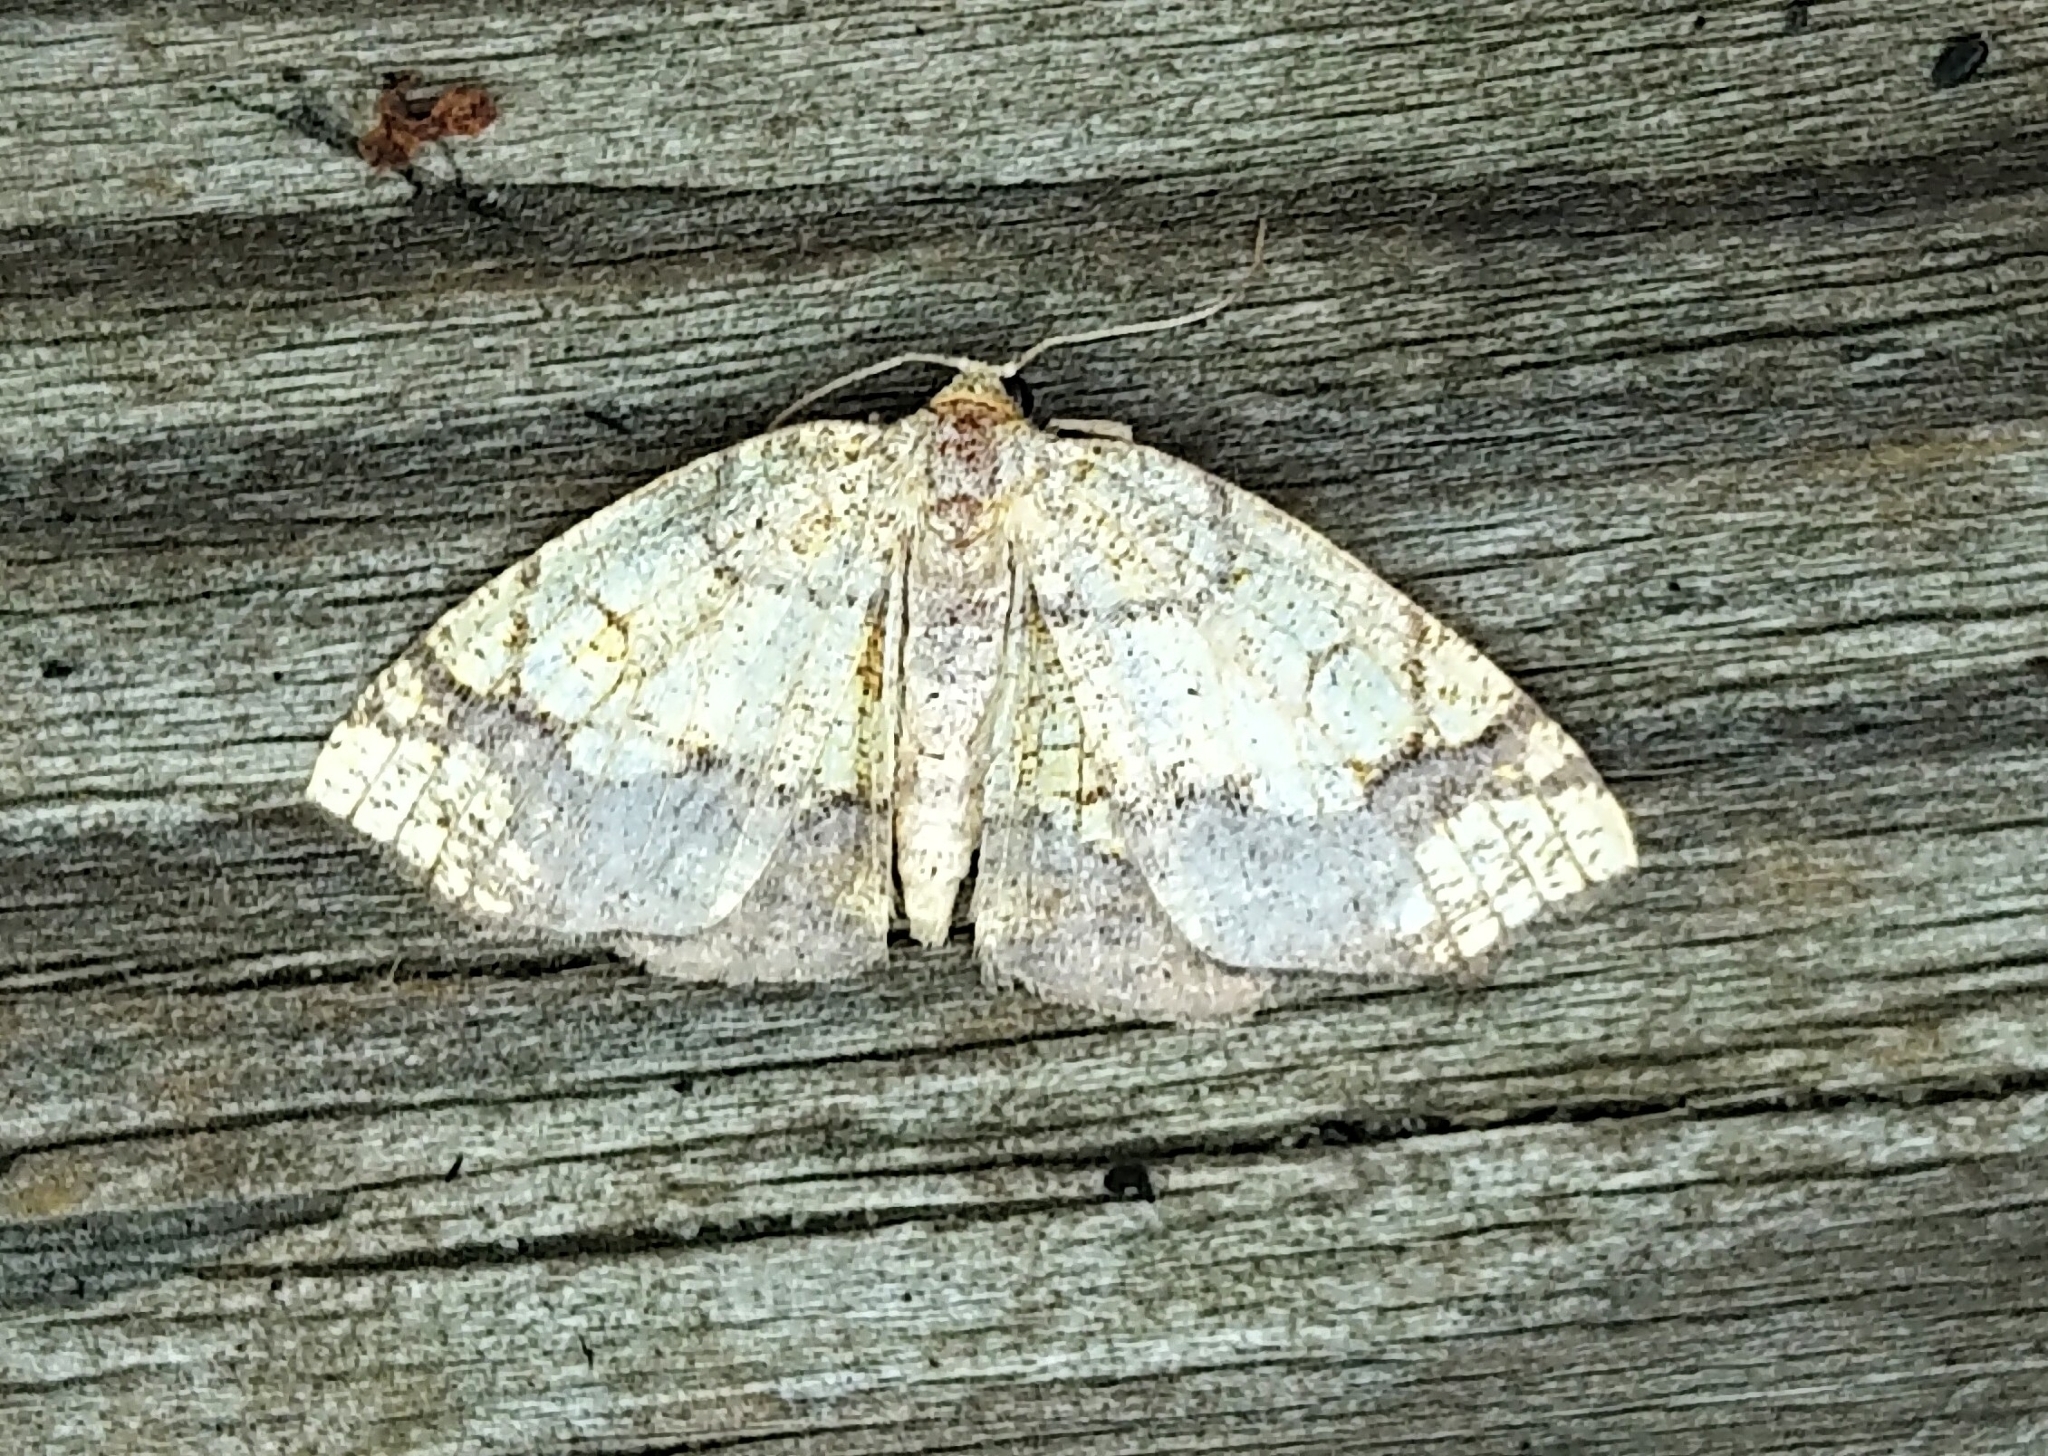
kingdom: Animalia
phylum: Arthropoda
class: Insecta
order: Lepidoptera
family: Geometridae
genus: Nematocampa
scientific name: Nematocampa resistaria
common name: Horned spanworm moth
